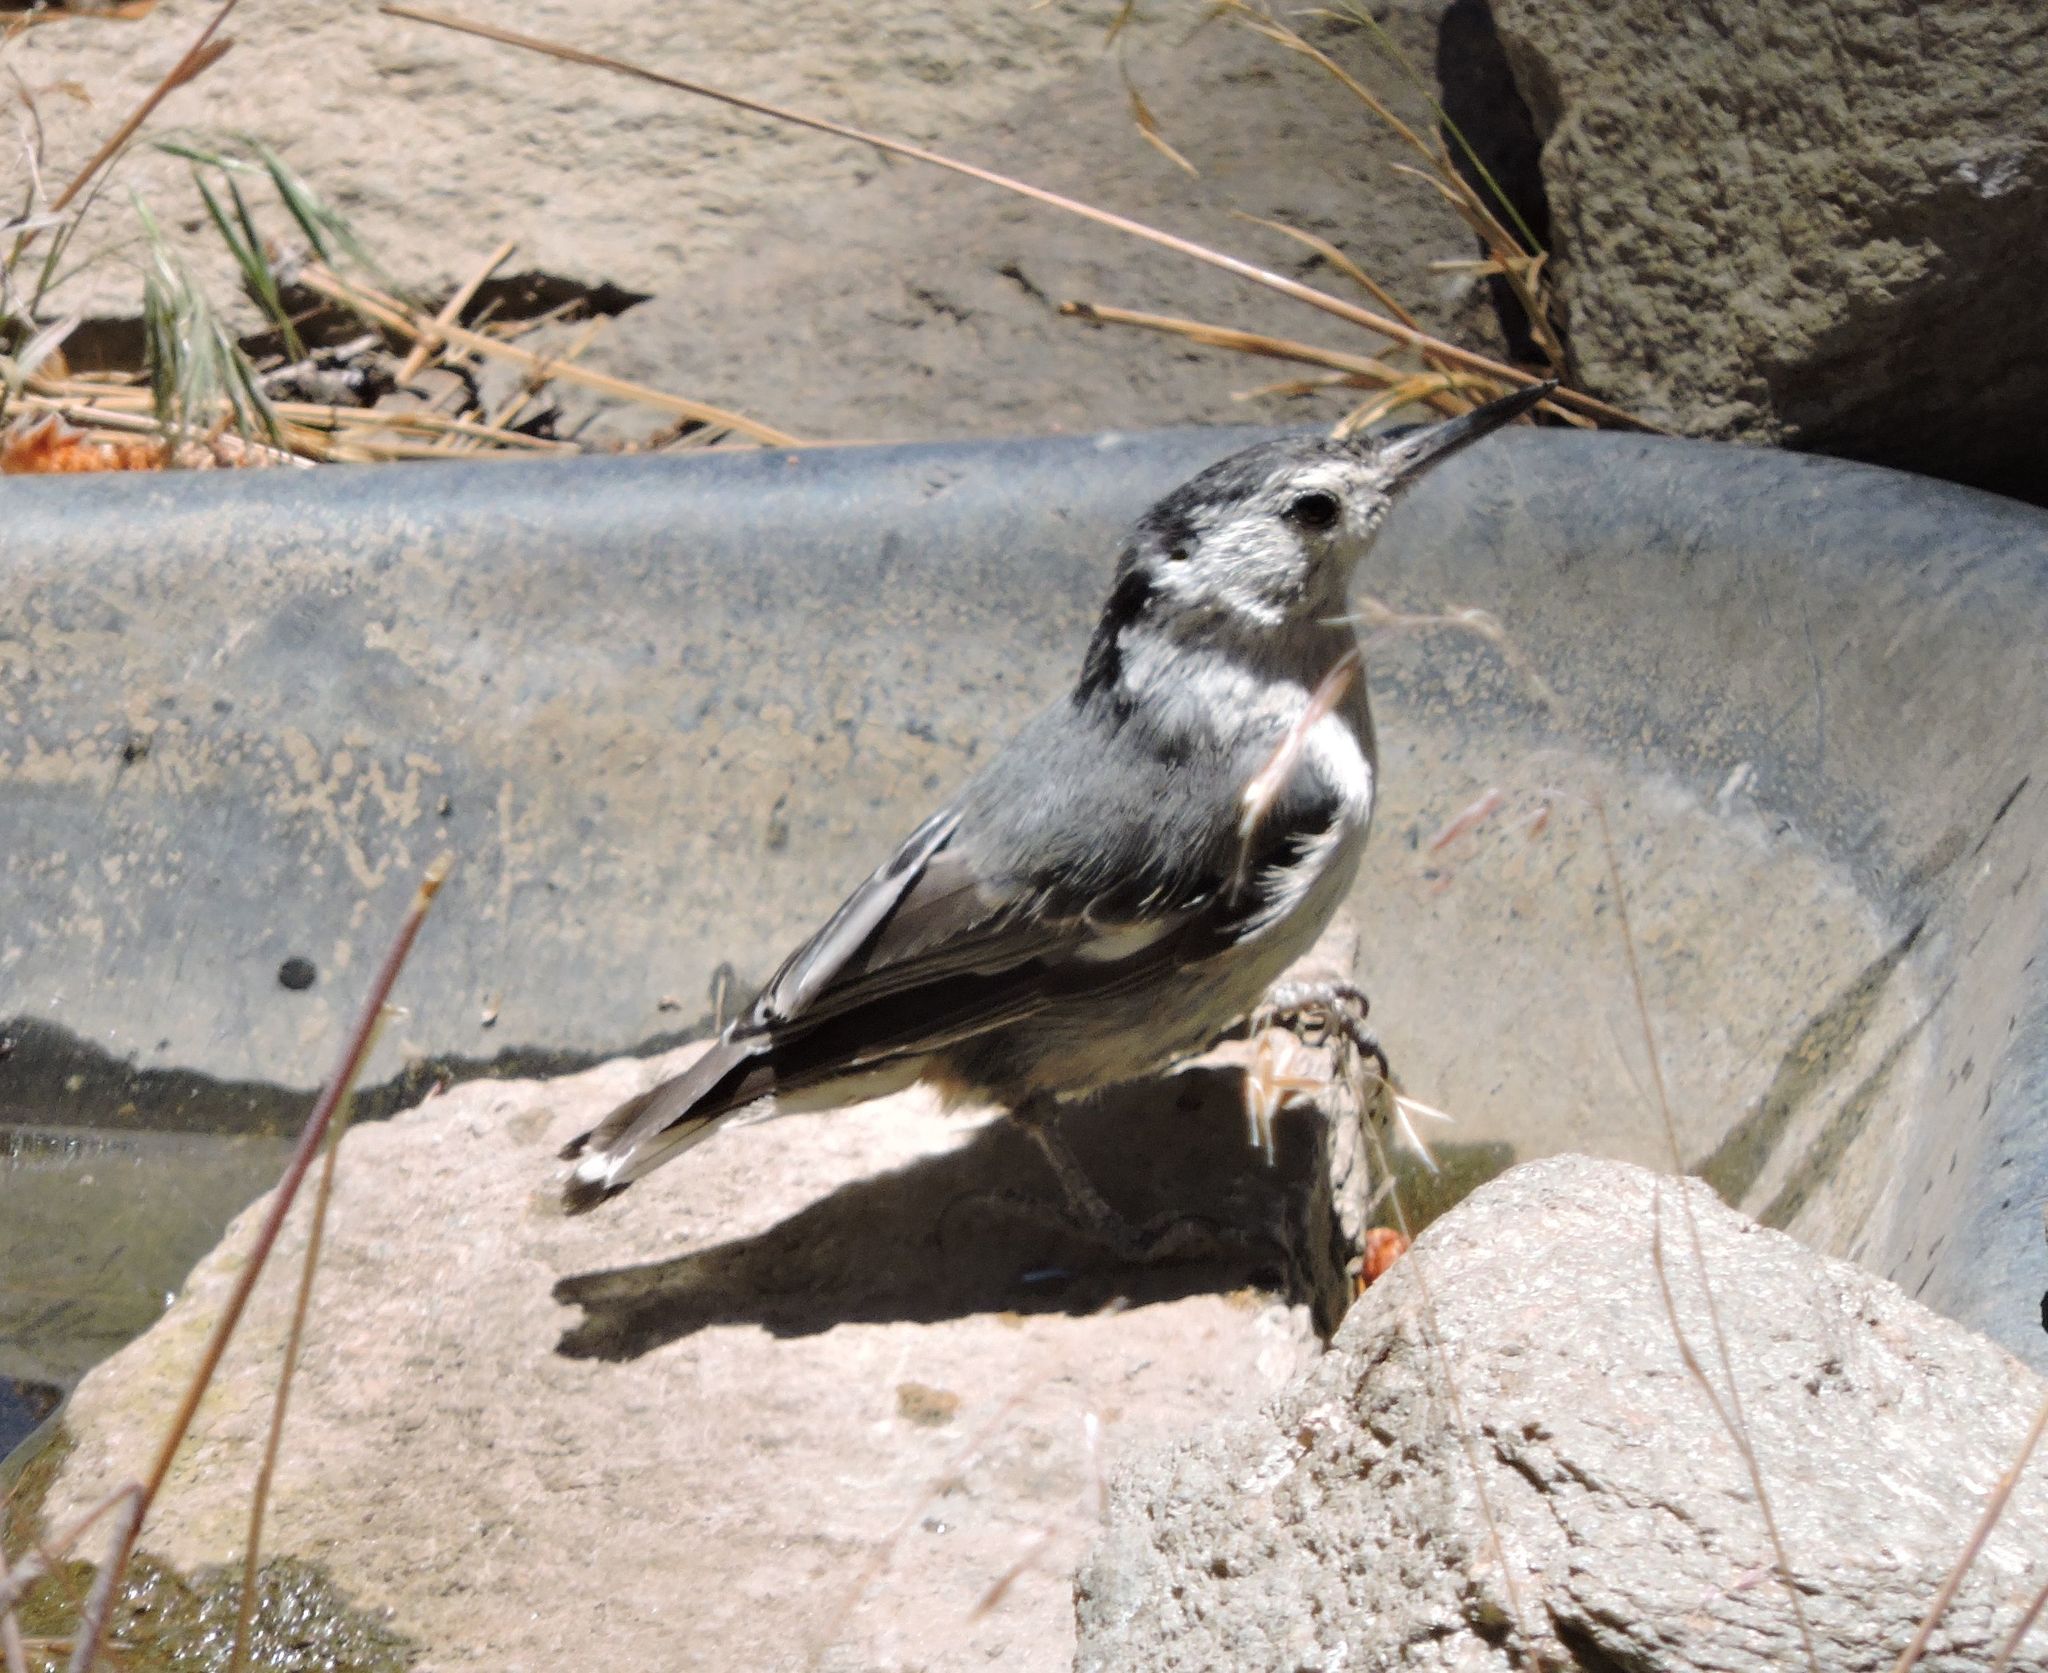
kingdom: Animalia
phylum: Chordata
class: Aves
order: Passeriformes
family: Sittidae
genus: Sitta
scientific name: Sitta carolinensis
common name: White-breasted nuthatch
